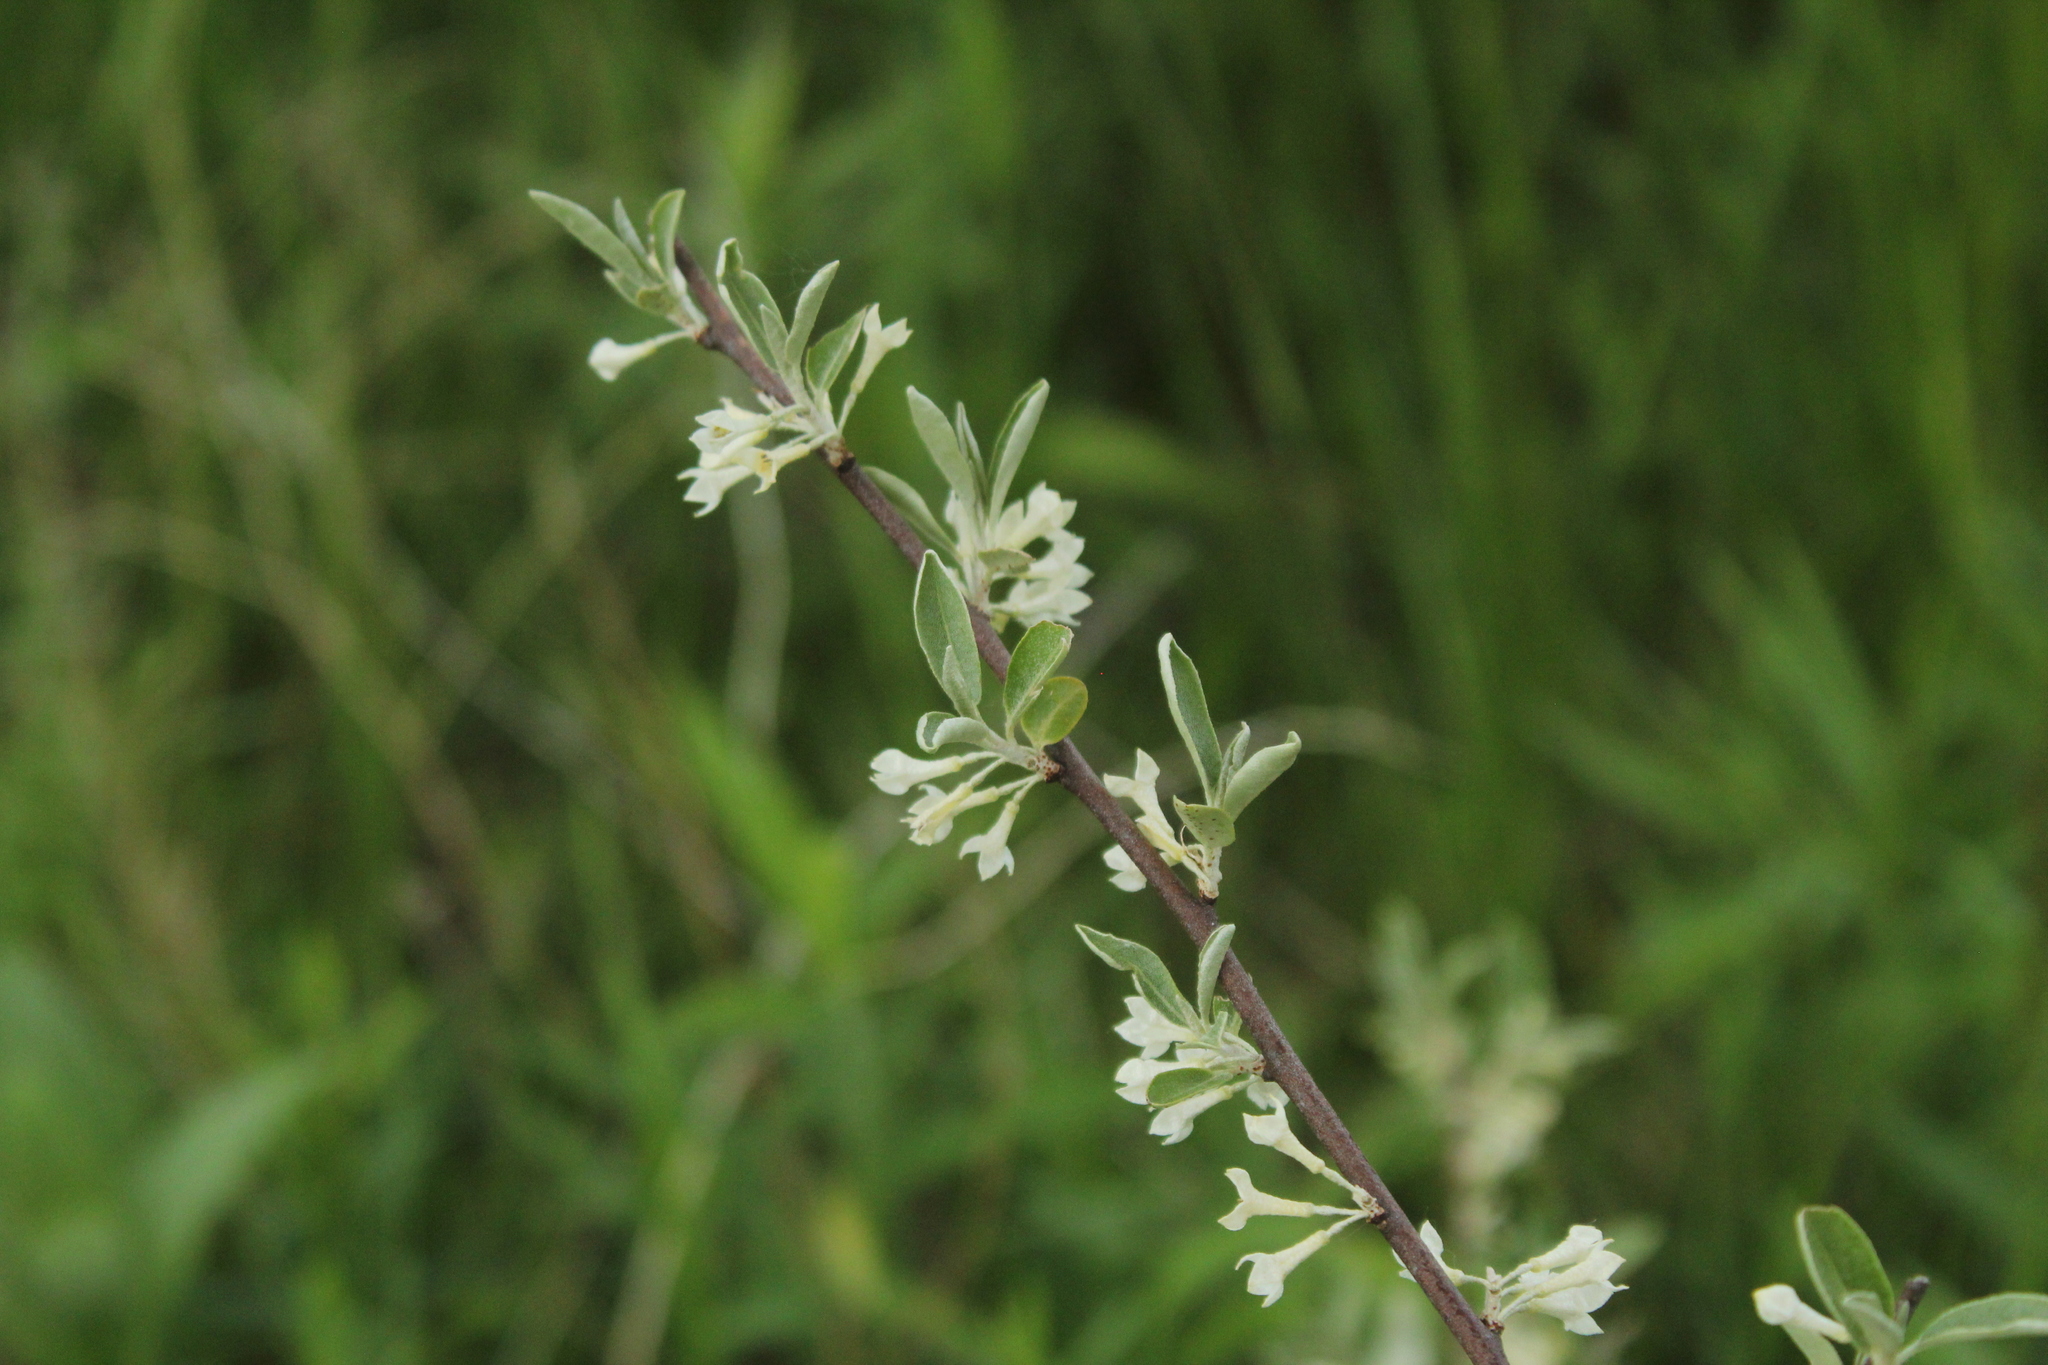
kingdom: Plantae
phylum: Tracheophyta
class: Magnoliopsida
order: Rosales
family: Elaeagnaceae
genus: Elaeagnus
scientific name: Elaeagnus umbellata
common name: Autumn olive
